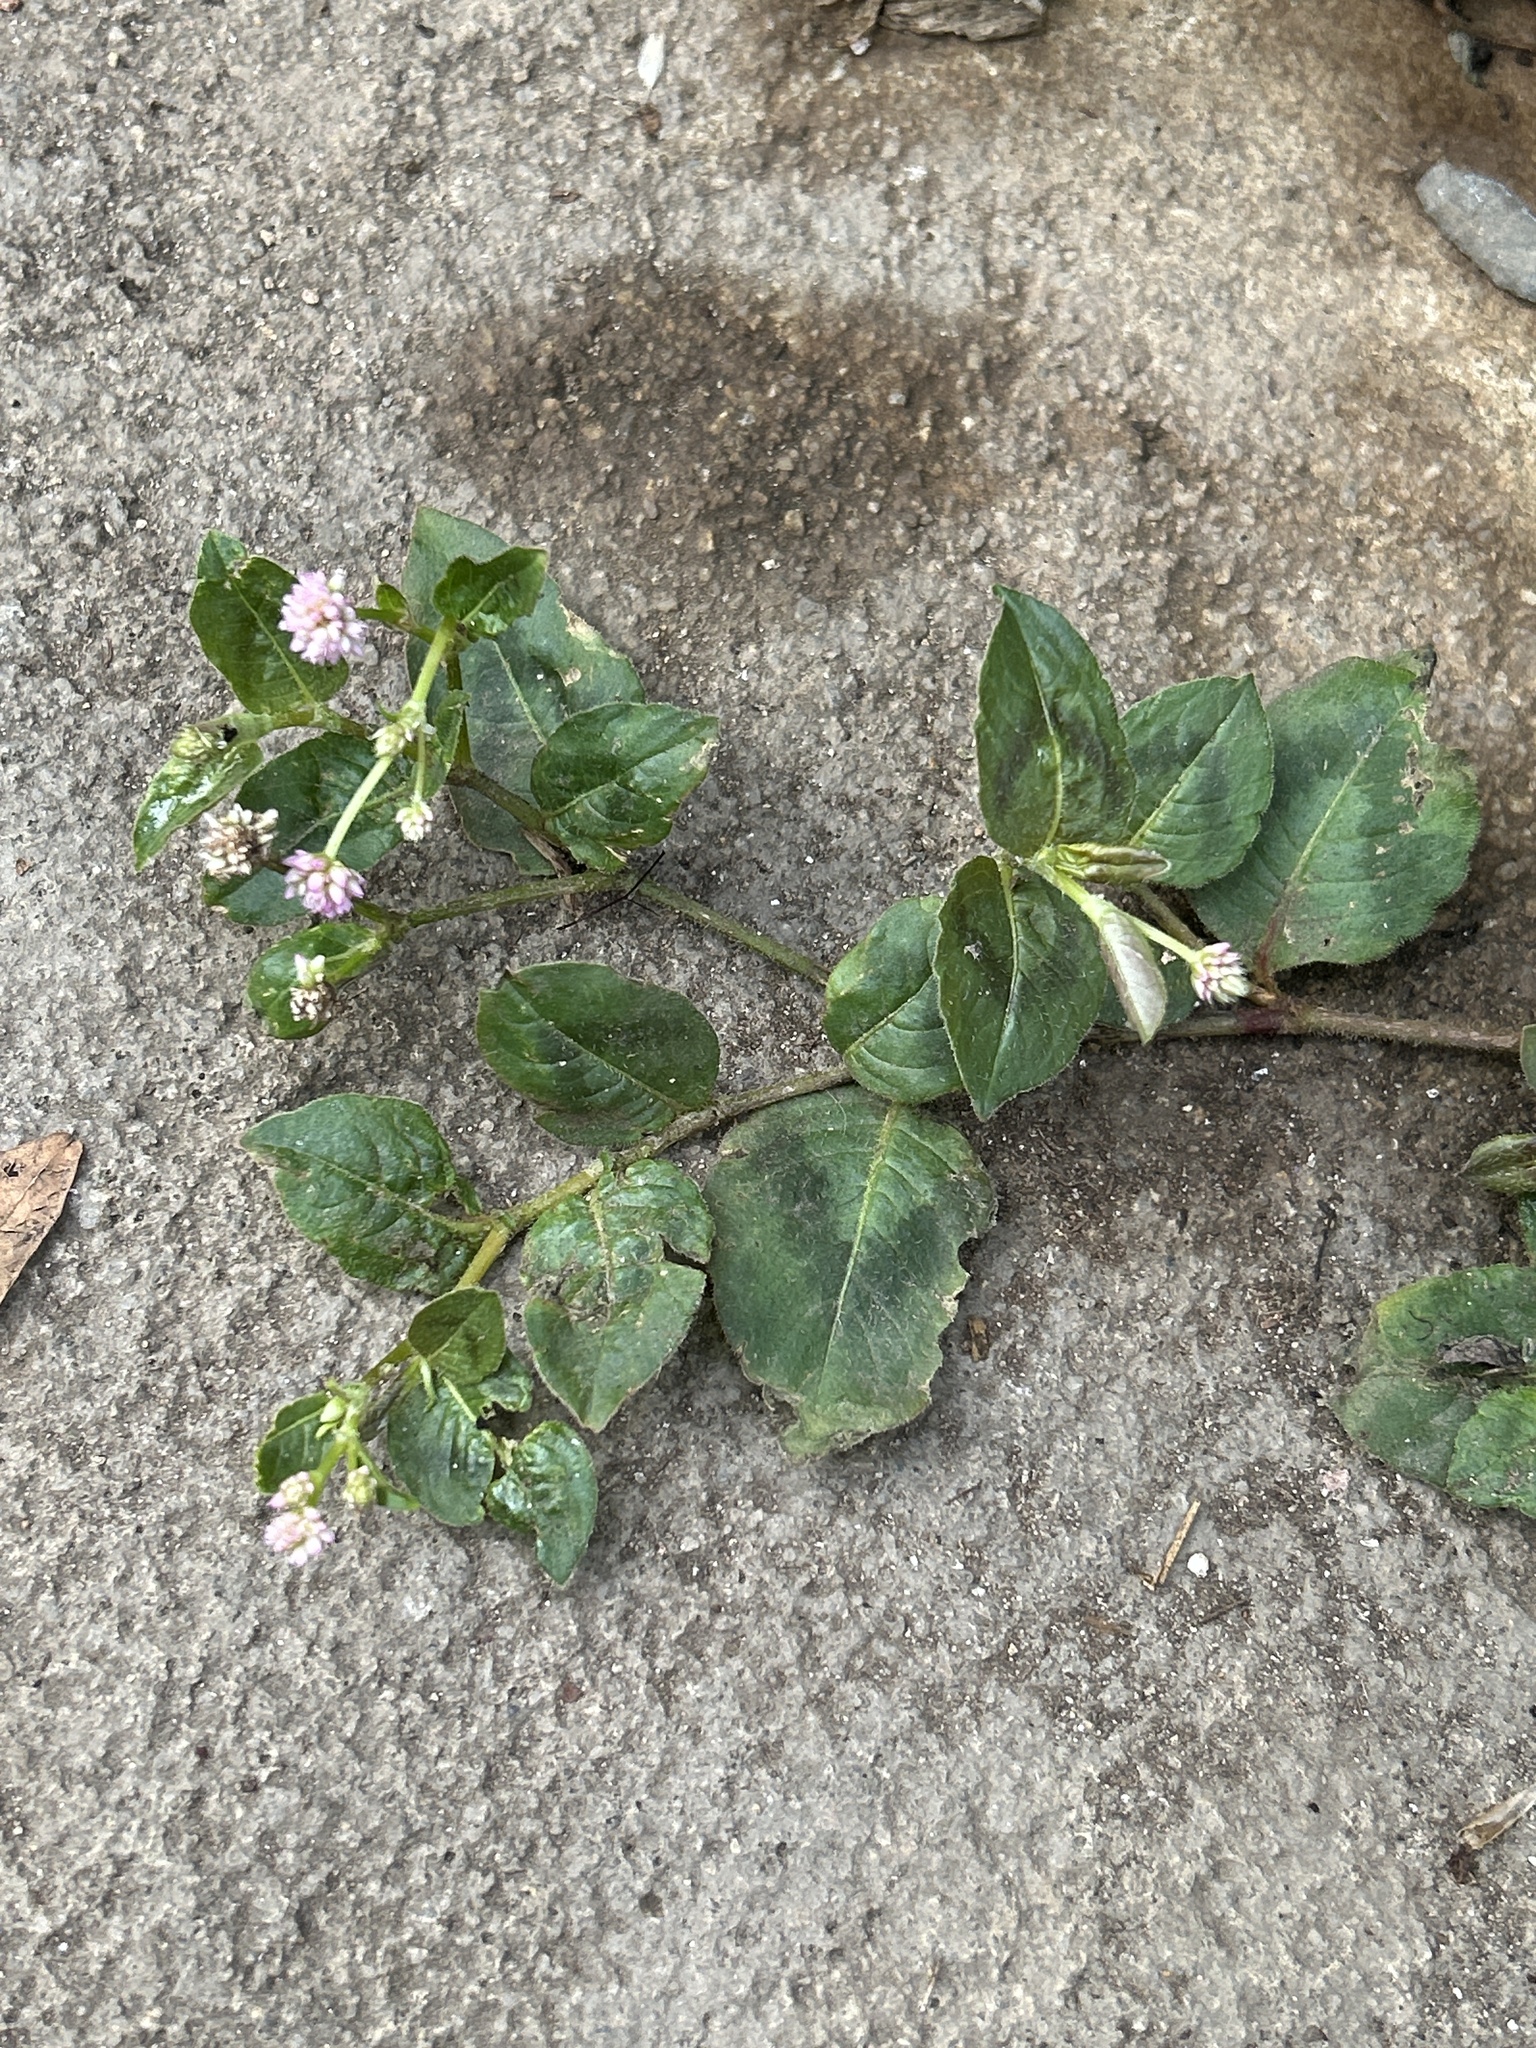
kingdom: Plantae
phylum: Tracheophyta
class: Magnoliopsida
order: Caryophyllales
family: Polygonaceae
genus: Persicaria
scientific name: Persicaria capitata
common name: Pinkhead smartweed
